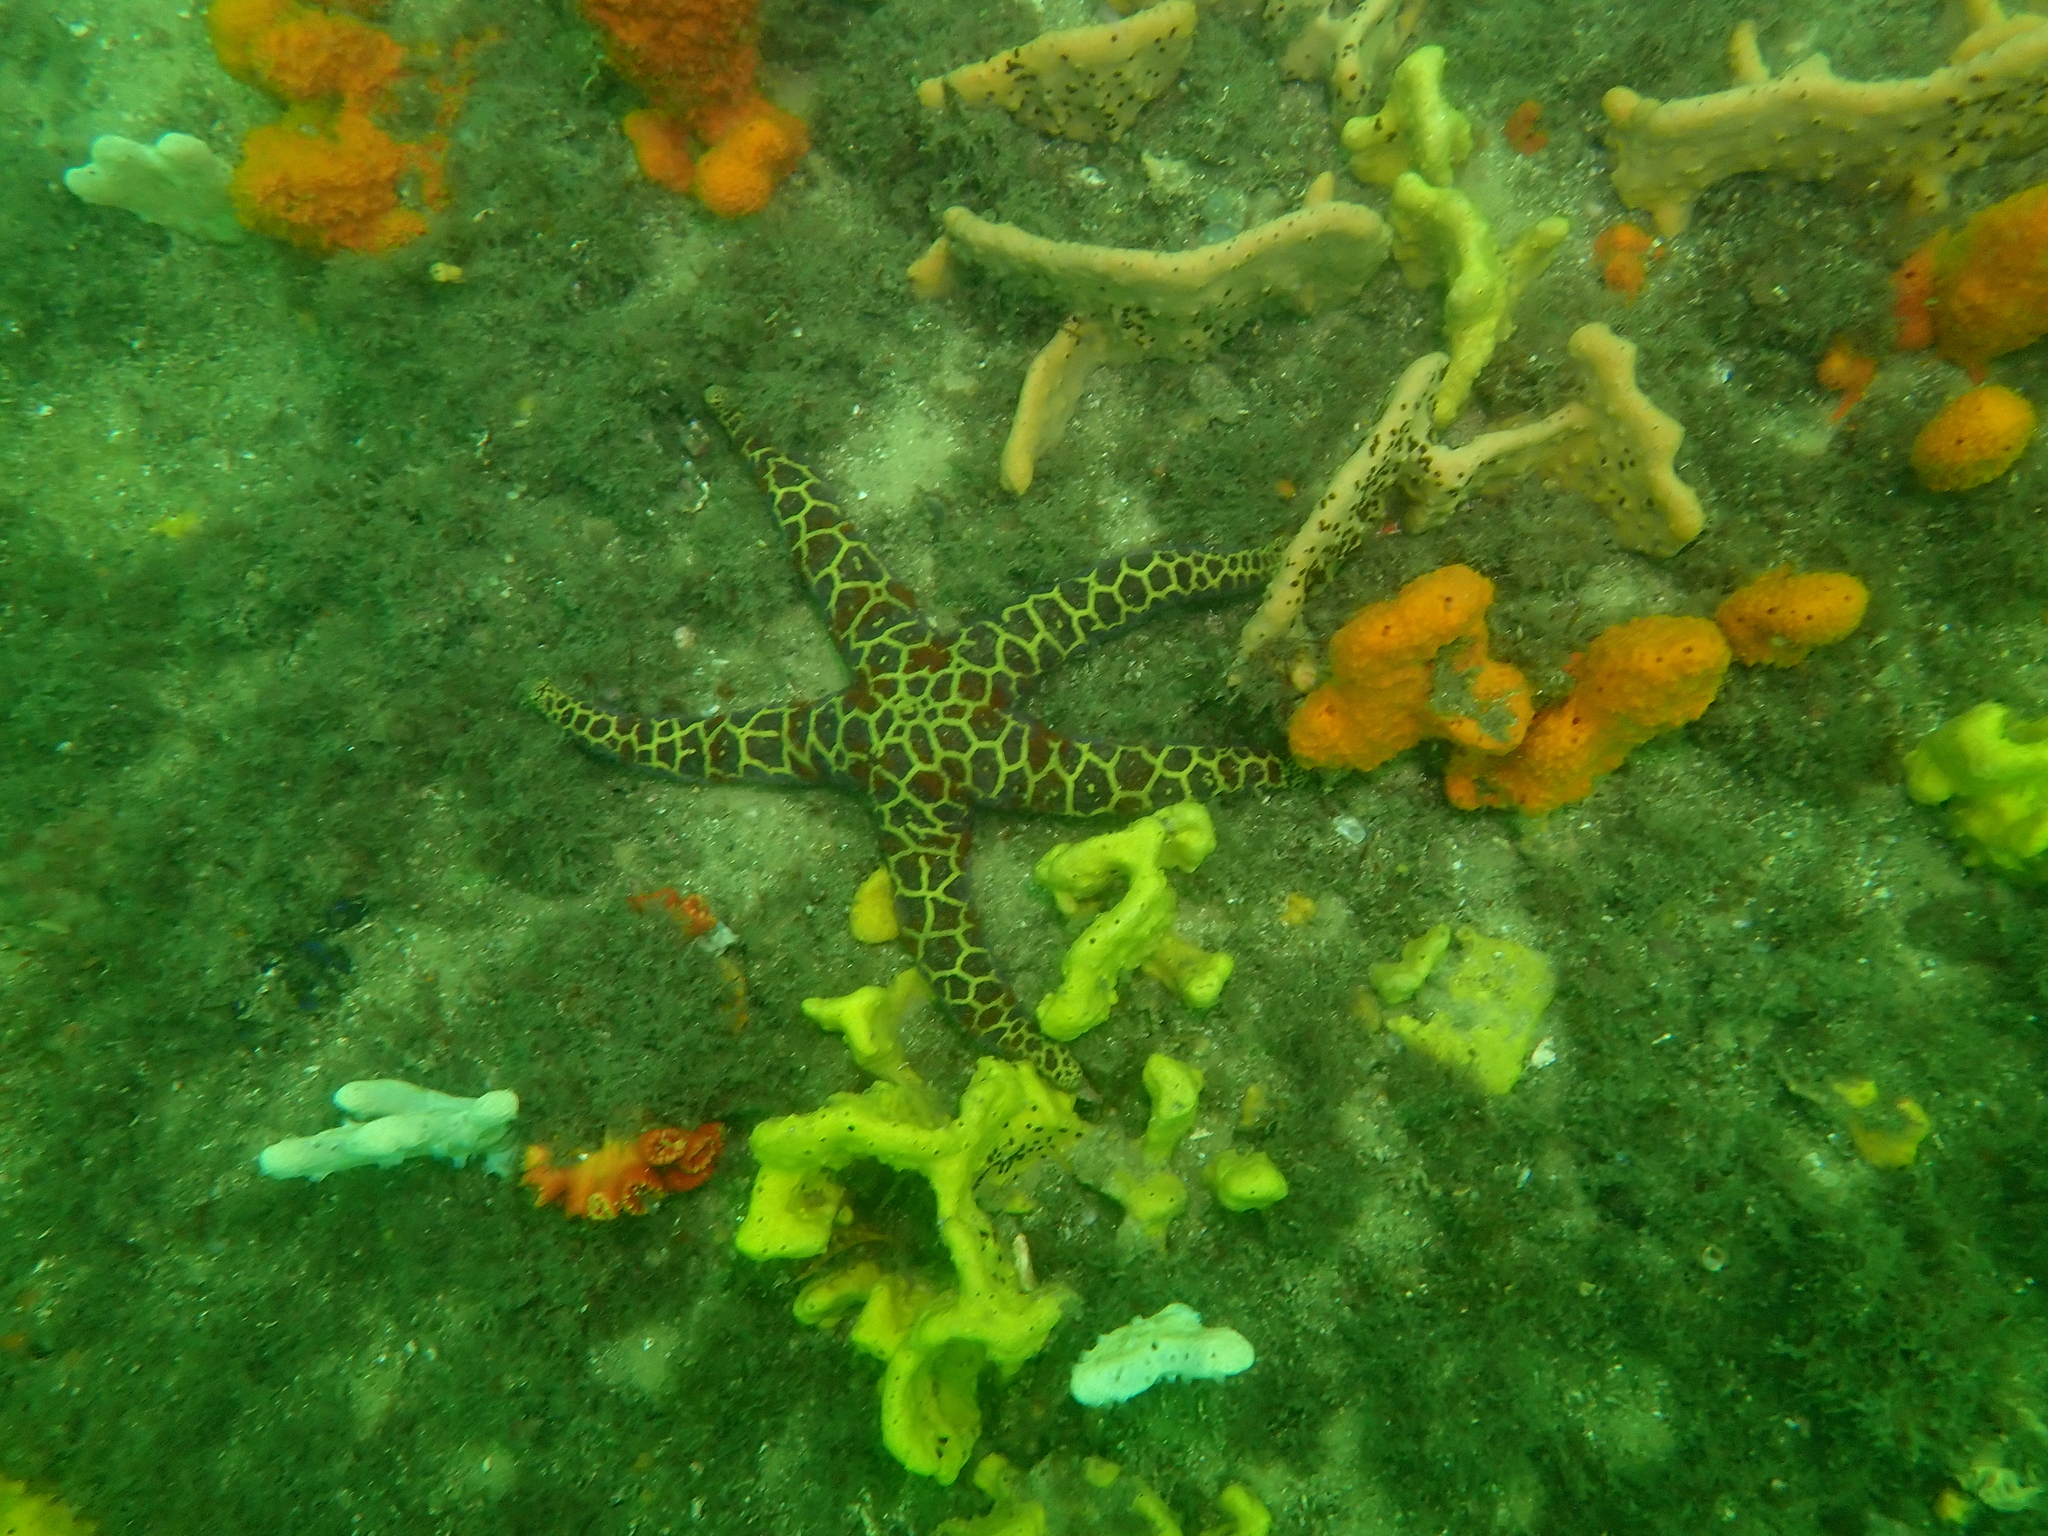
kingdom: Animalia
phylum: Echinodermata
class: Asteroidea
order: Spinulosida
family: Echinasteridae
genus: Plectaster
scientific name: Plectaster decanus
